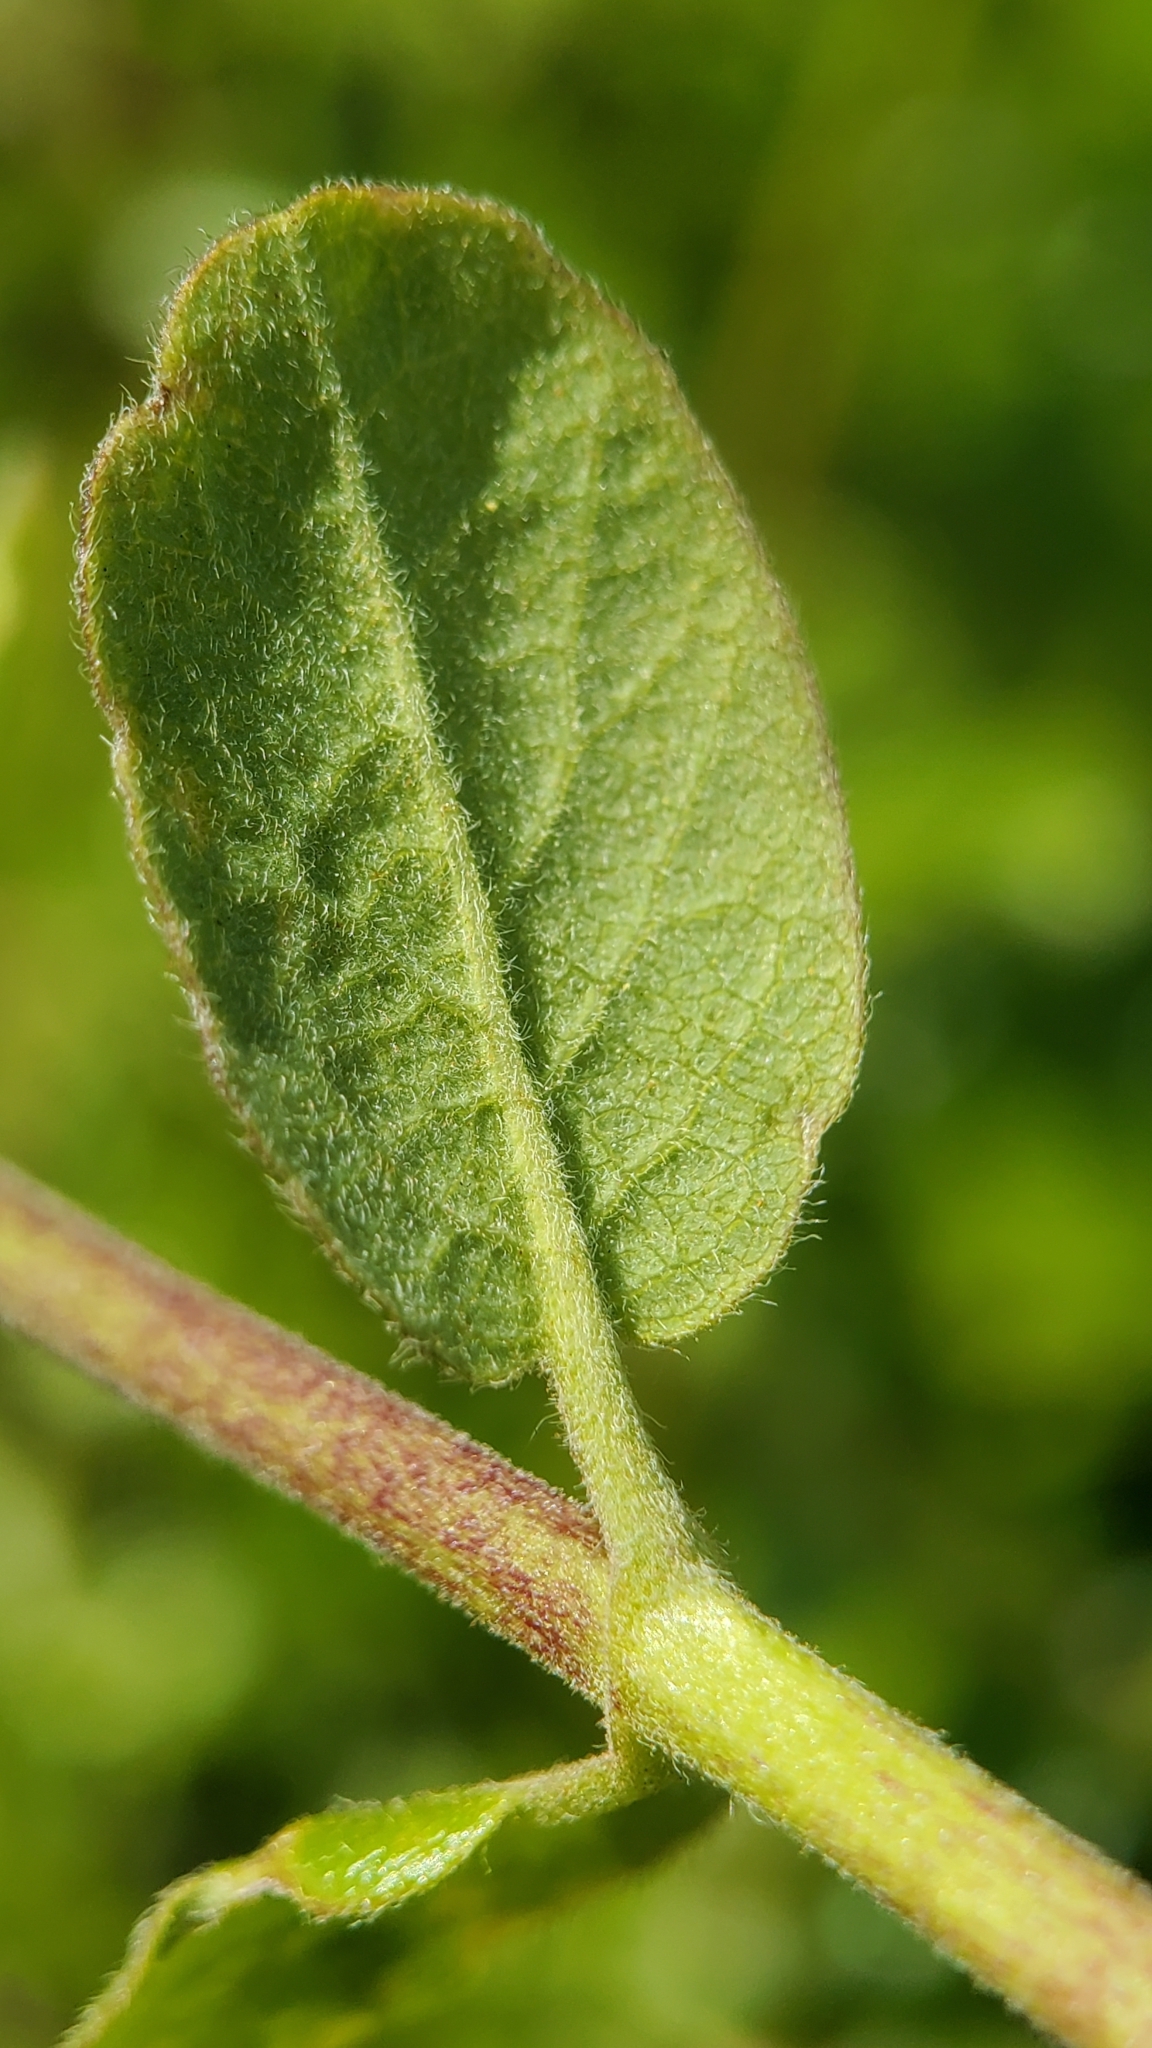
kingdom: Plantae
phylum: Tracheophyta
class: Magnoliopsida
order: Dipsacales
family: Caprifoliaceae
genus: Lonicera
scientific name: Lonicera subspicata
